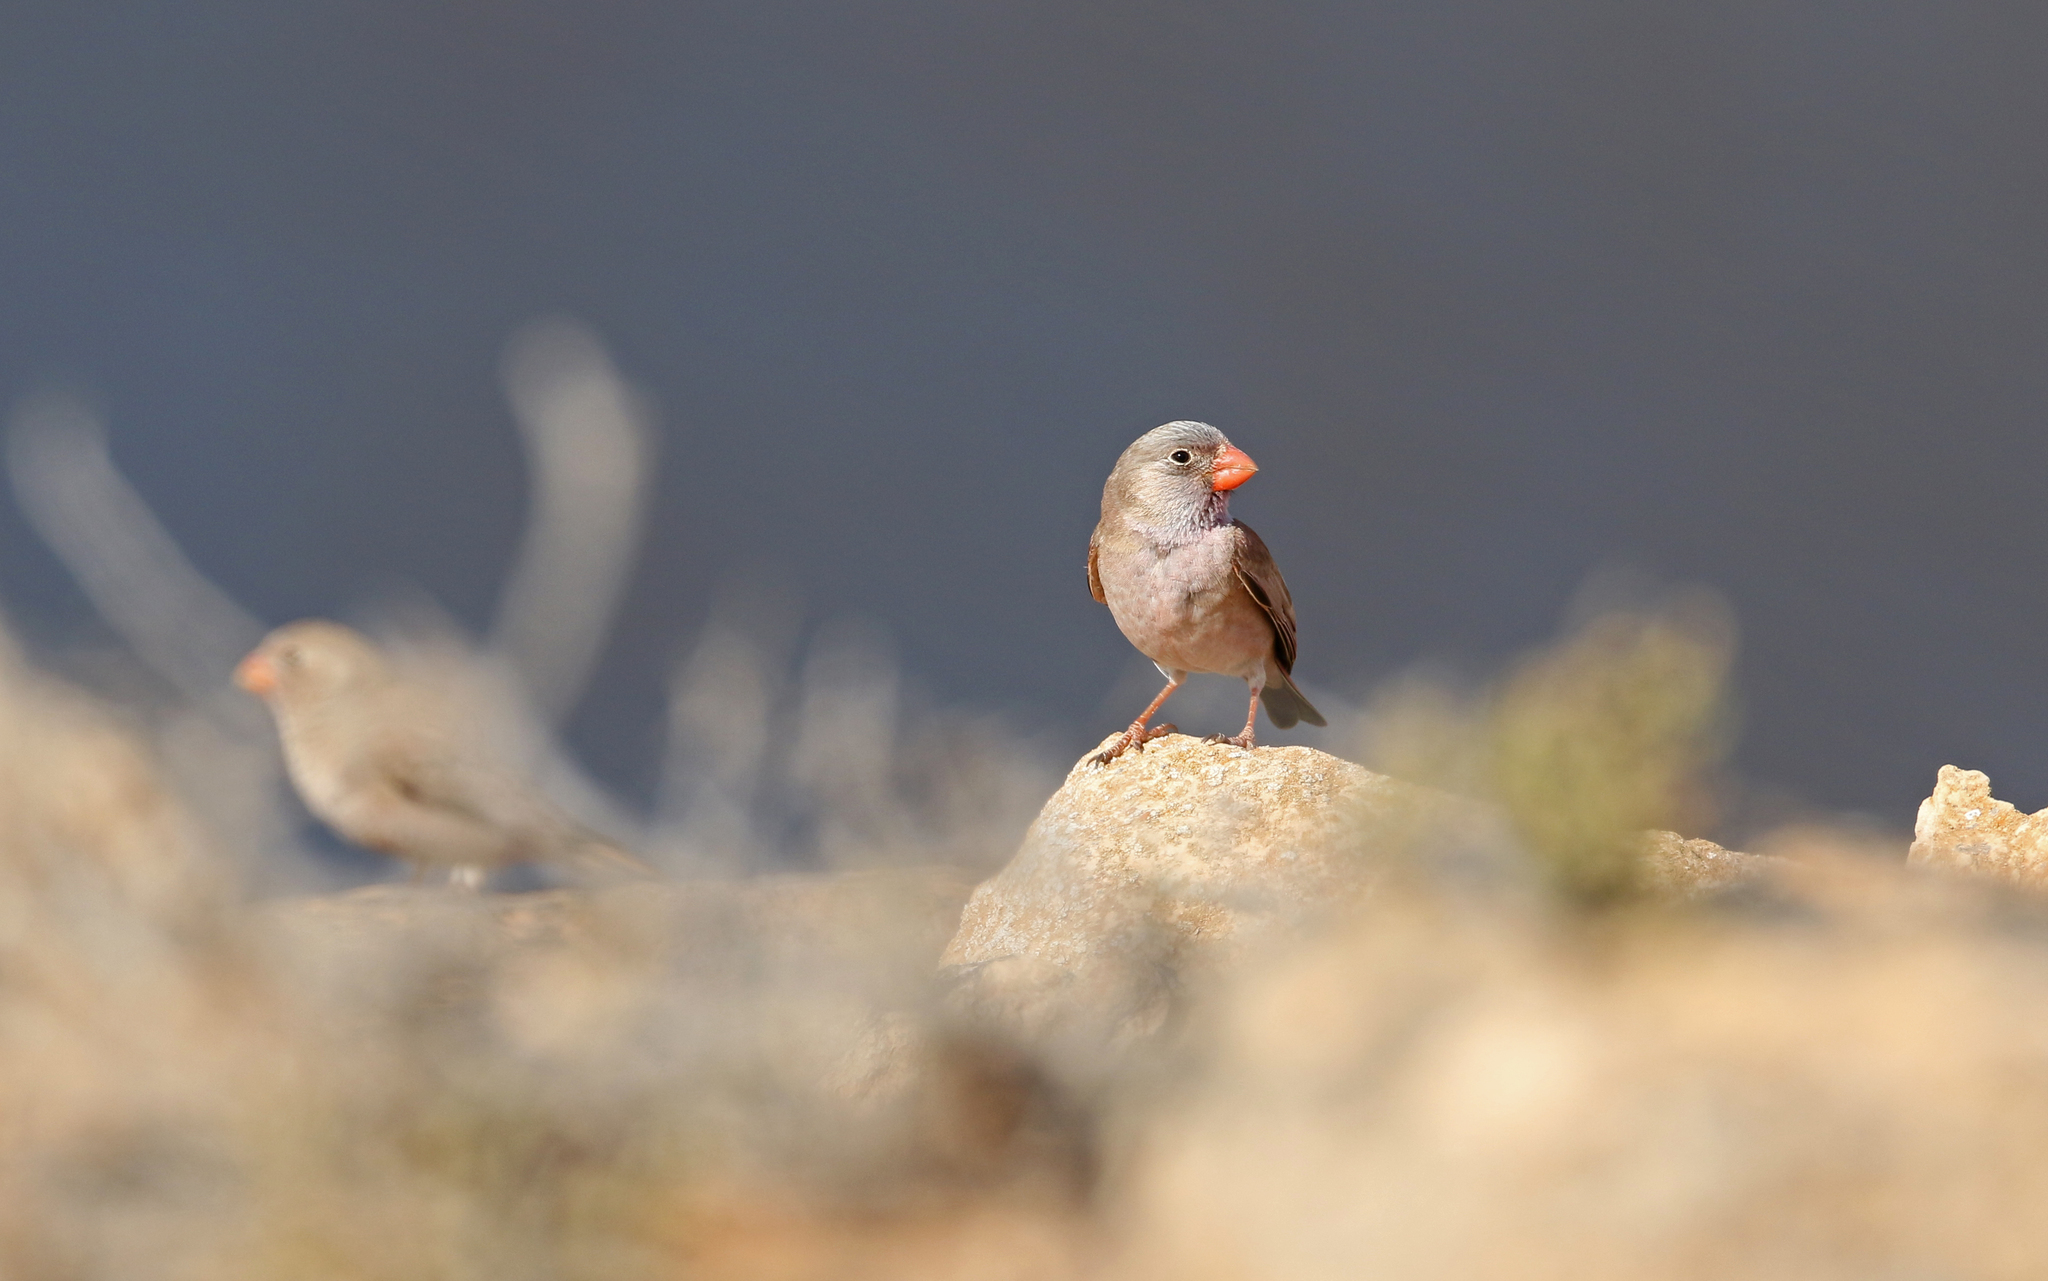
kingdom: Animalia
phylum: Chordata
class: Aves
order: Passeriformes
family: Fringillidae
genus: Bucanetes
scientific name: Bucanetes githagineus
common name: Trumpeter finch
